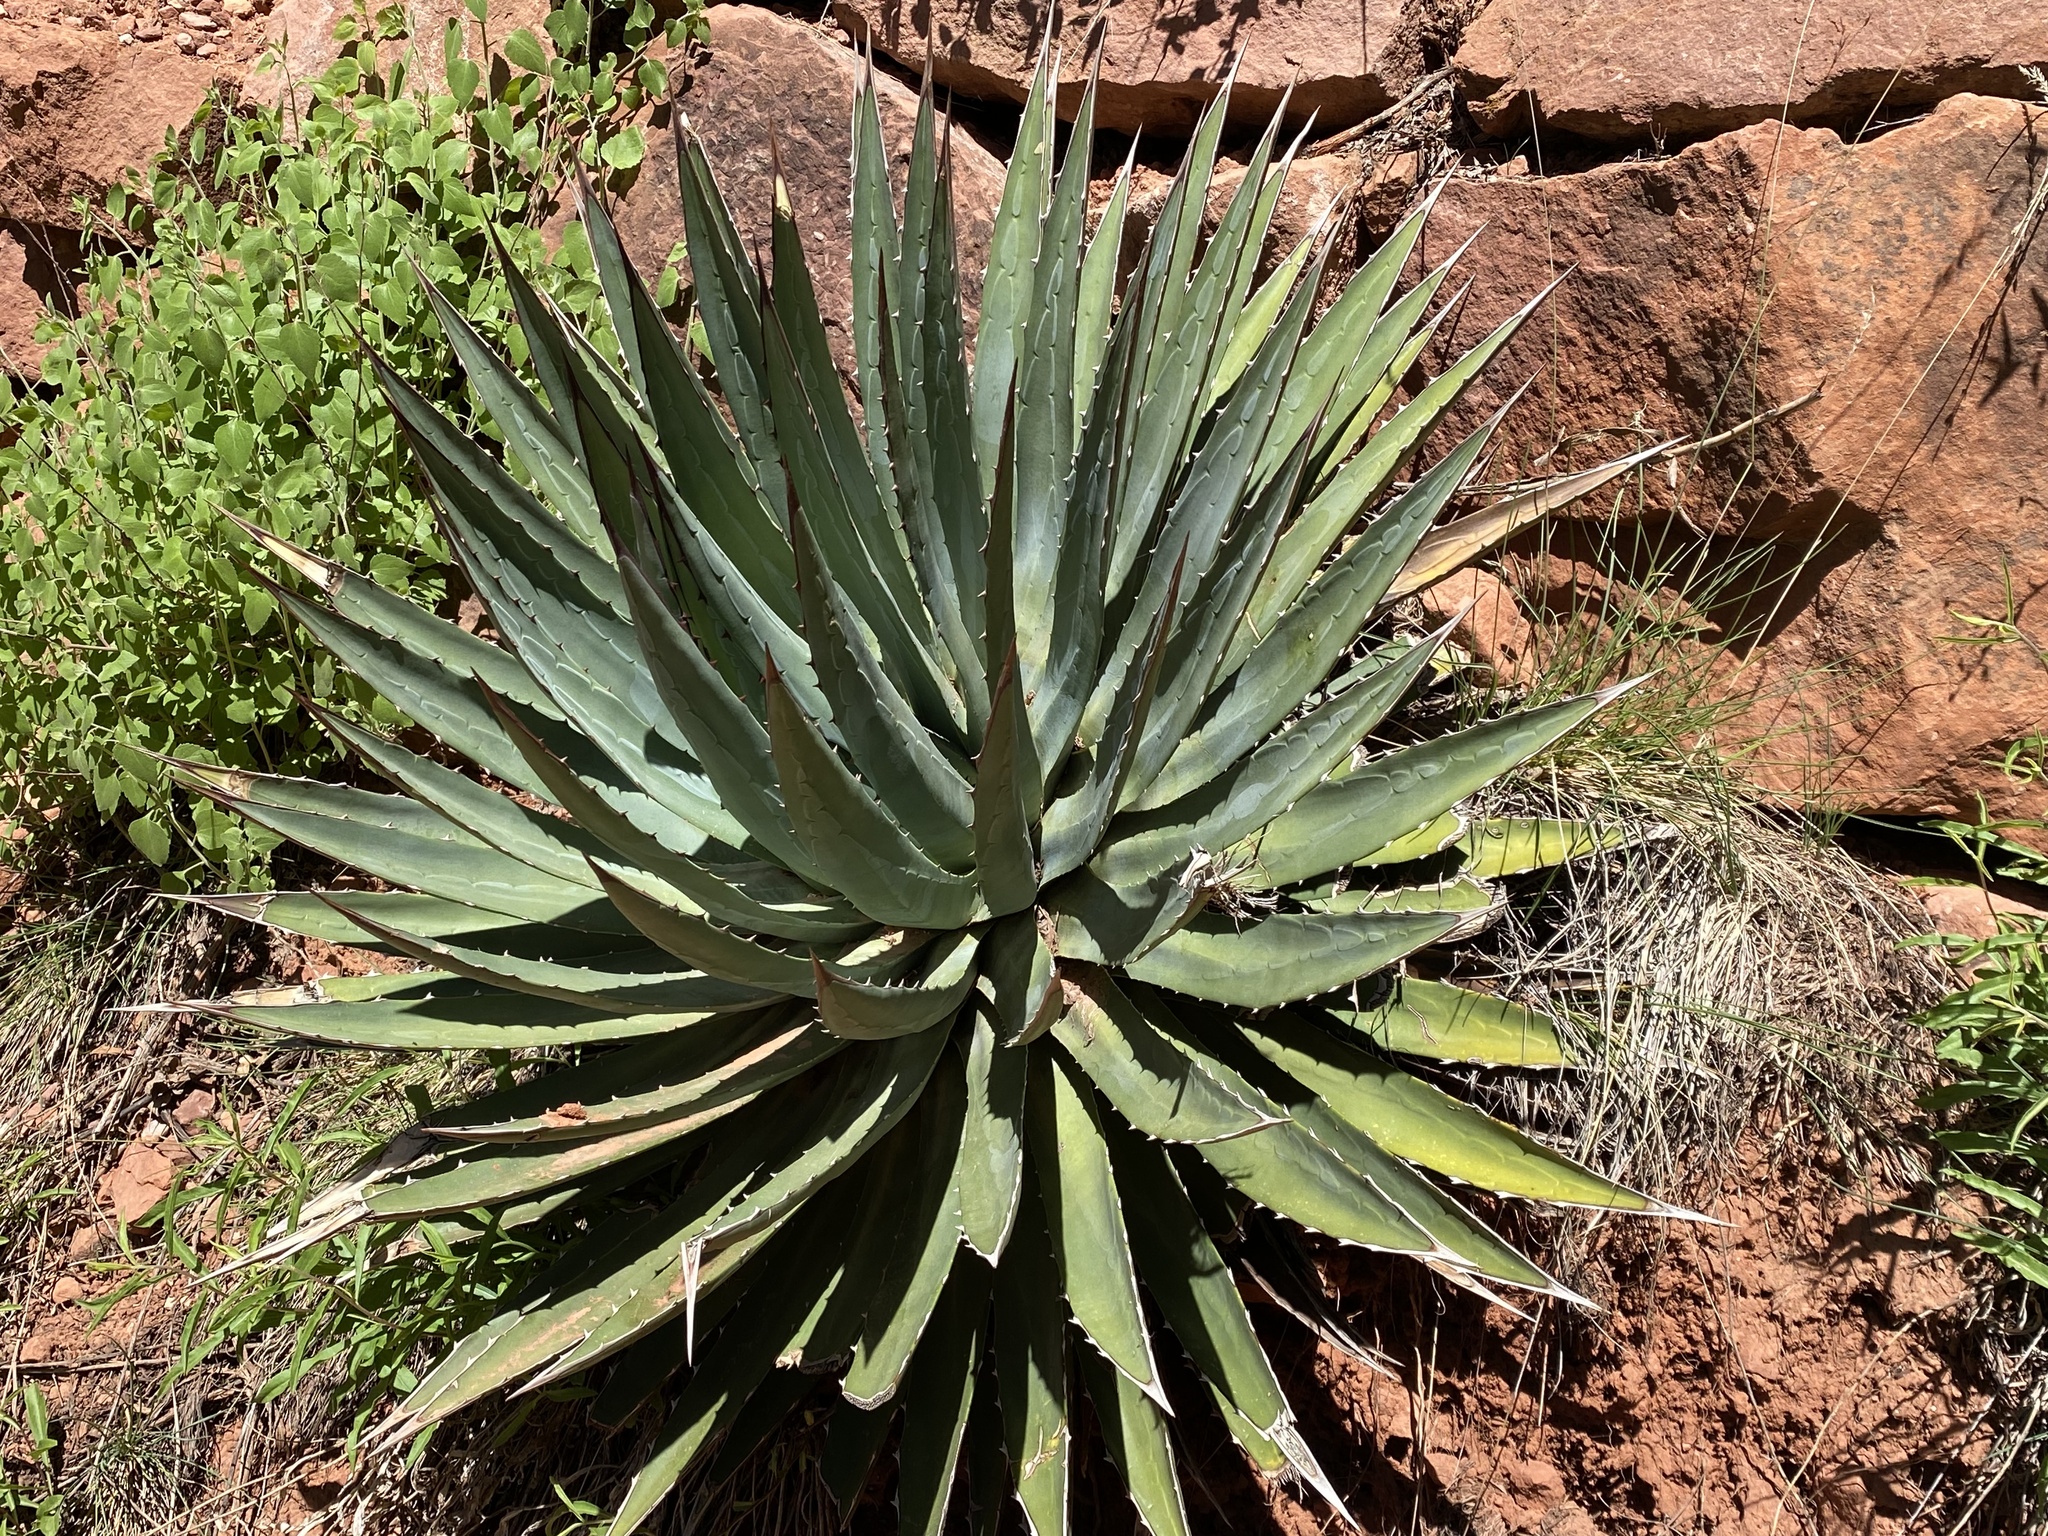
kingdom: Plantae
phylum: Tracheophyta
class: Liliopsida
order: Asparagales
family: Asparagaceae
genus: Agave
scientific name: Agave utahensis
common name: Utah agave
